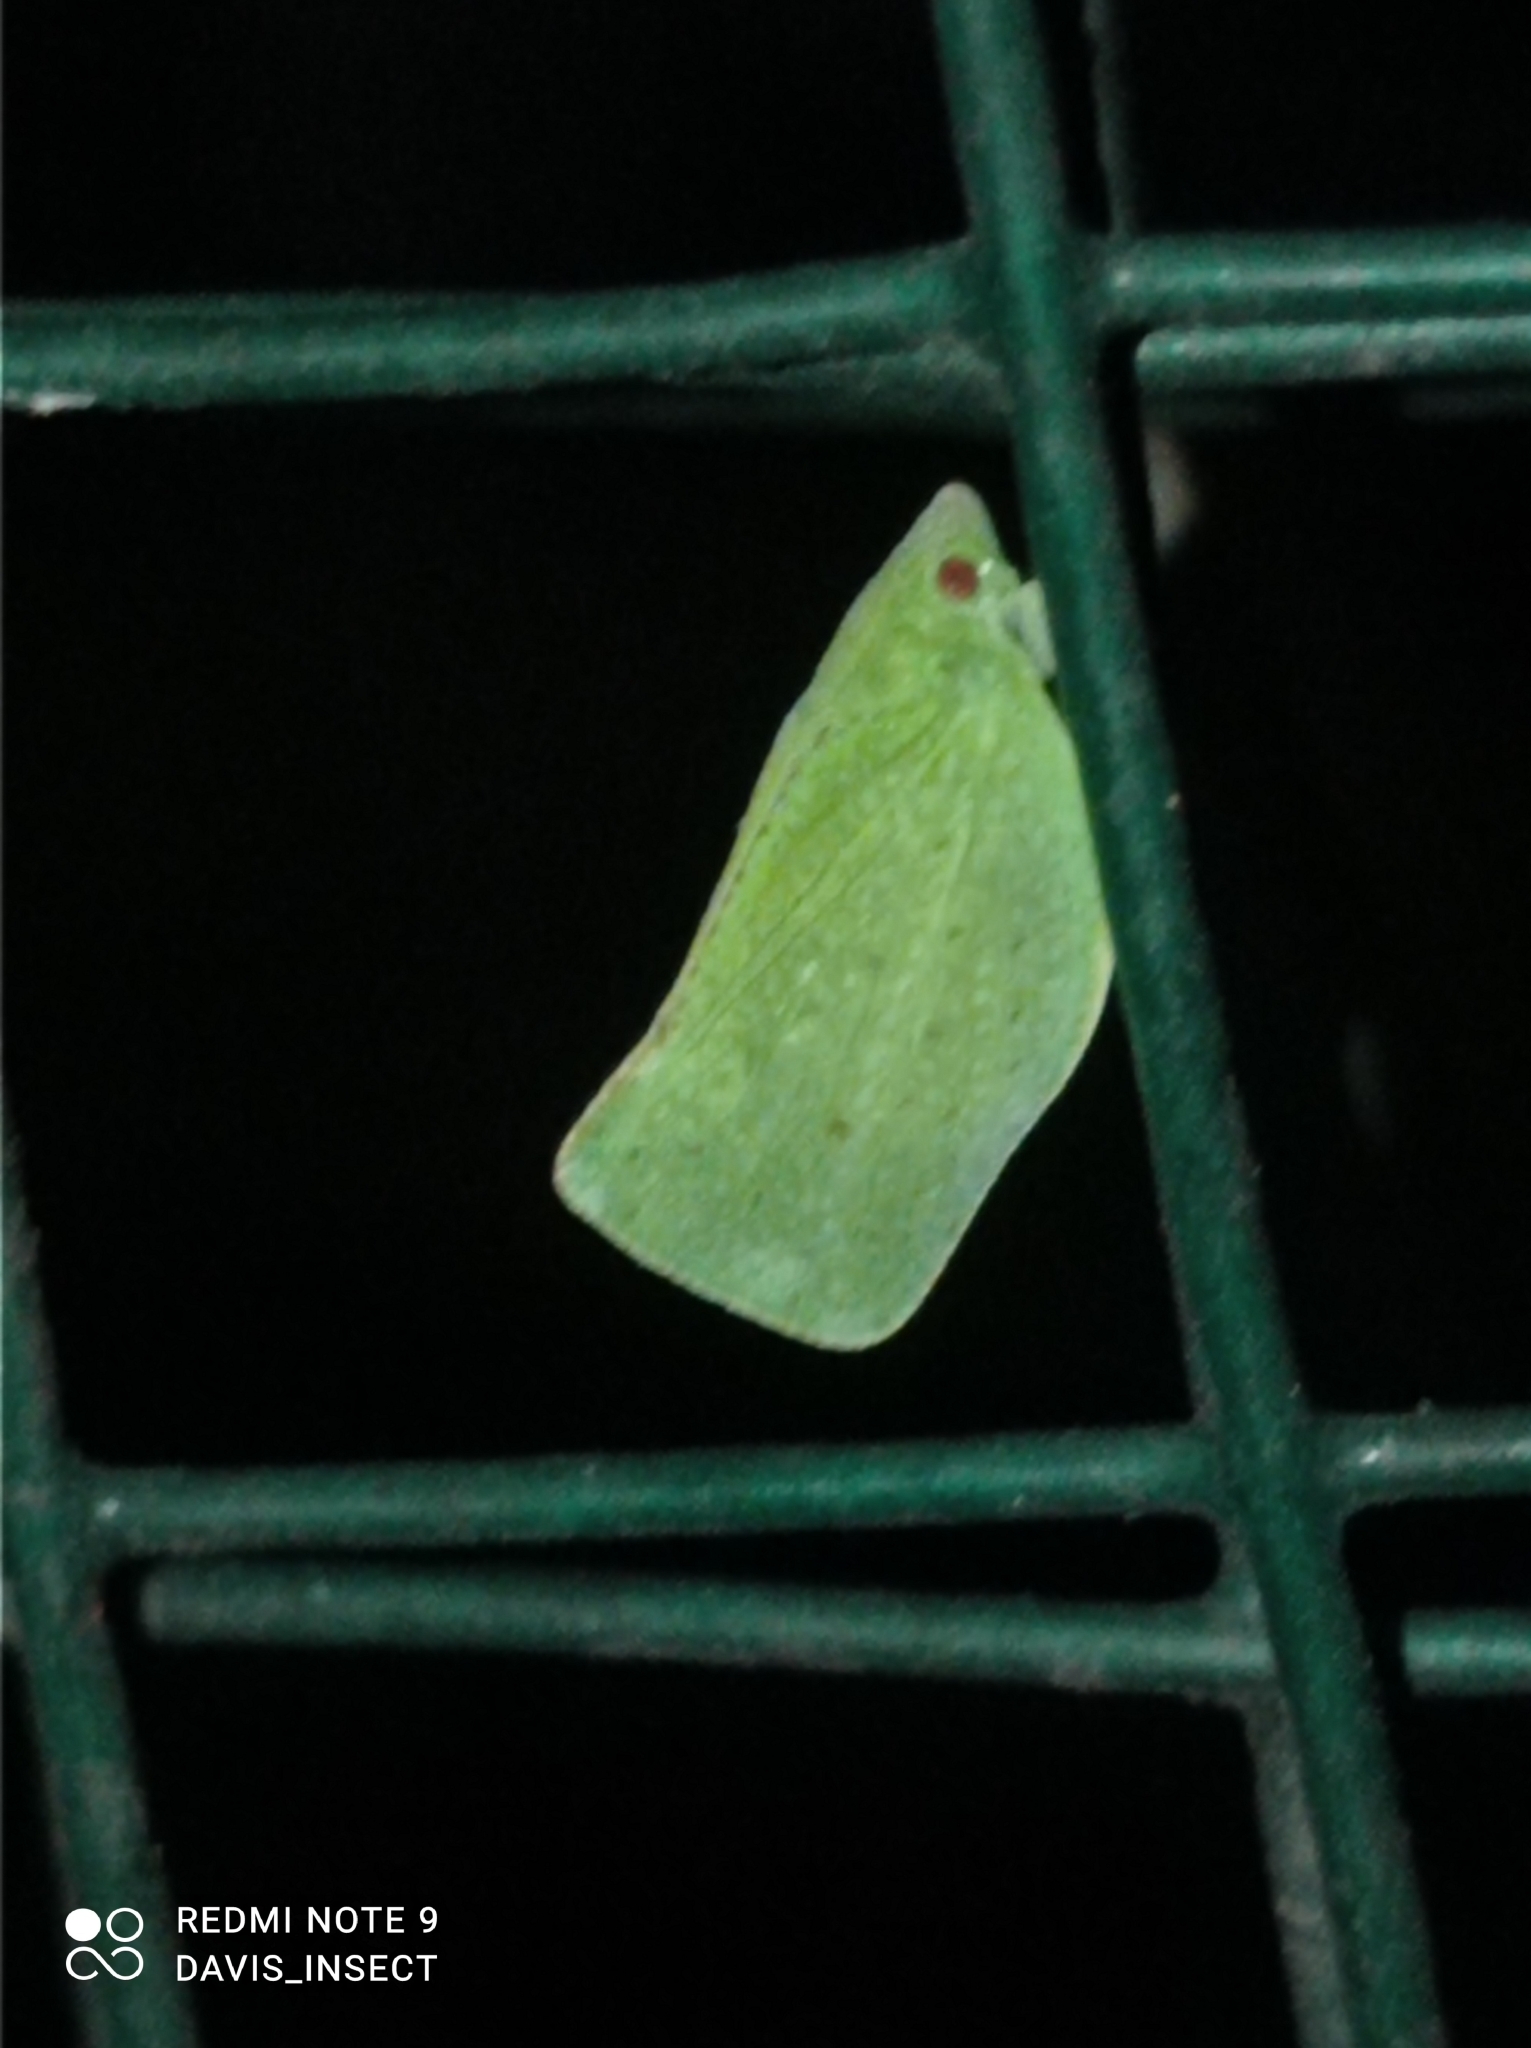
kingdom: Animalia
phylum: Arthropoda
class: Insecta
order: Hemiptera
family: Flatidae
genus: Siphanta
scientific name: Siphanta patruelis
